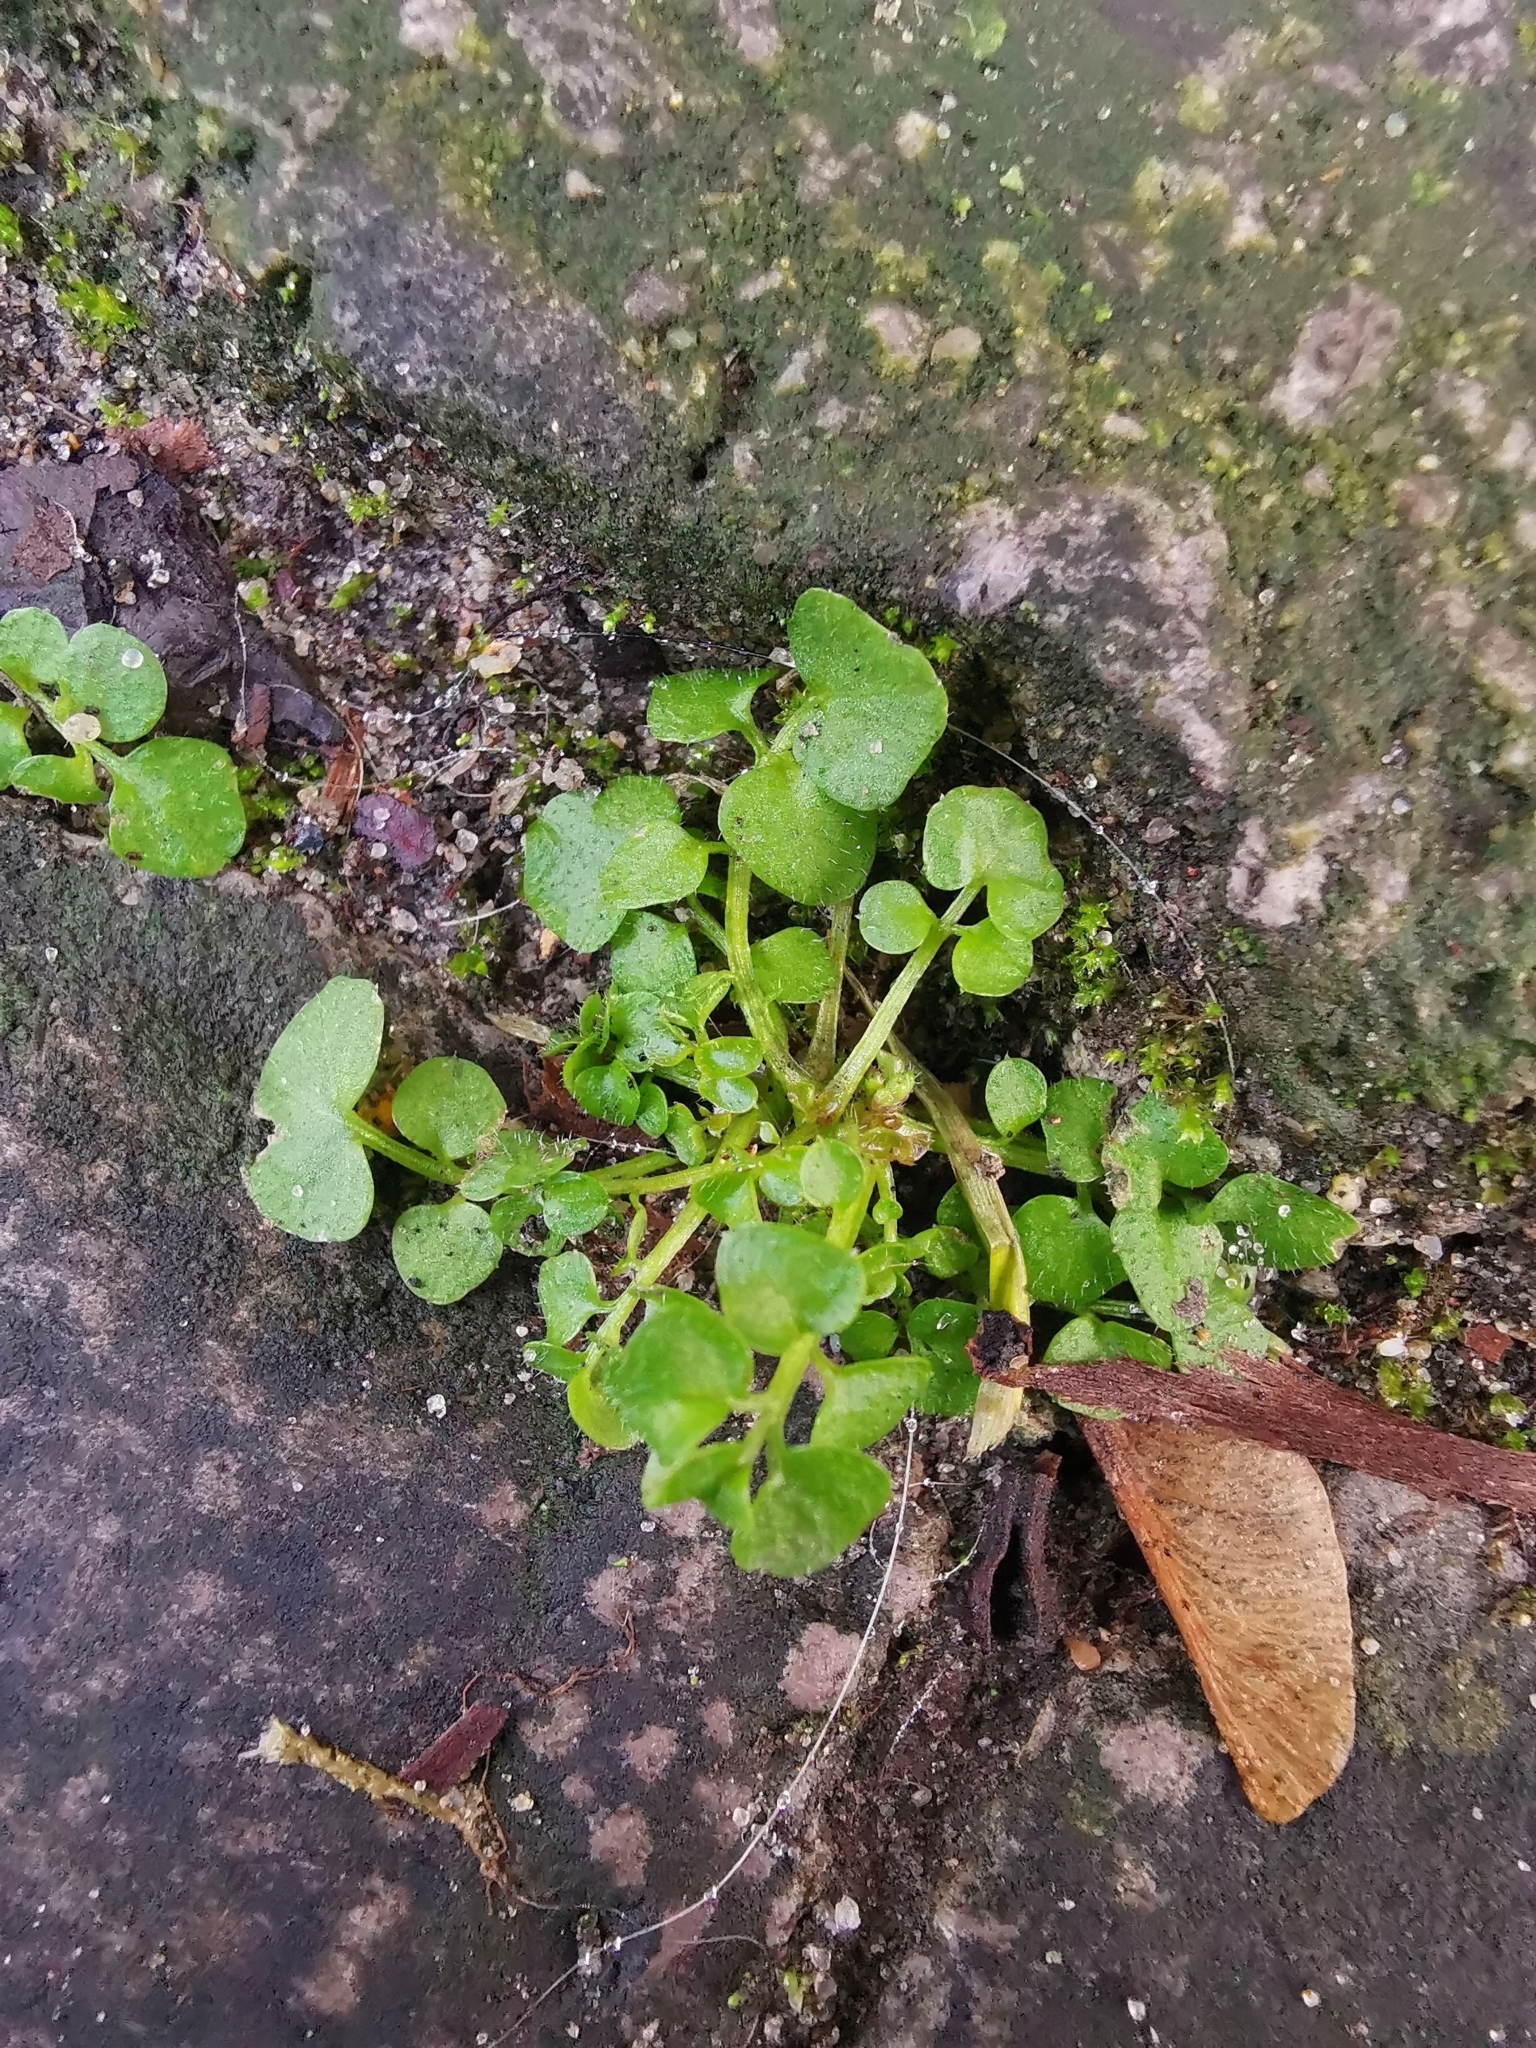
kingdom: Plantae
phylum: Tracheophyta
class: Magnoliopsida
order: Brassicales
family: Brassicaceae
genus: Cardamine
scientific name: Cardamine hirsuta
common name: Hairy bittercress
